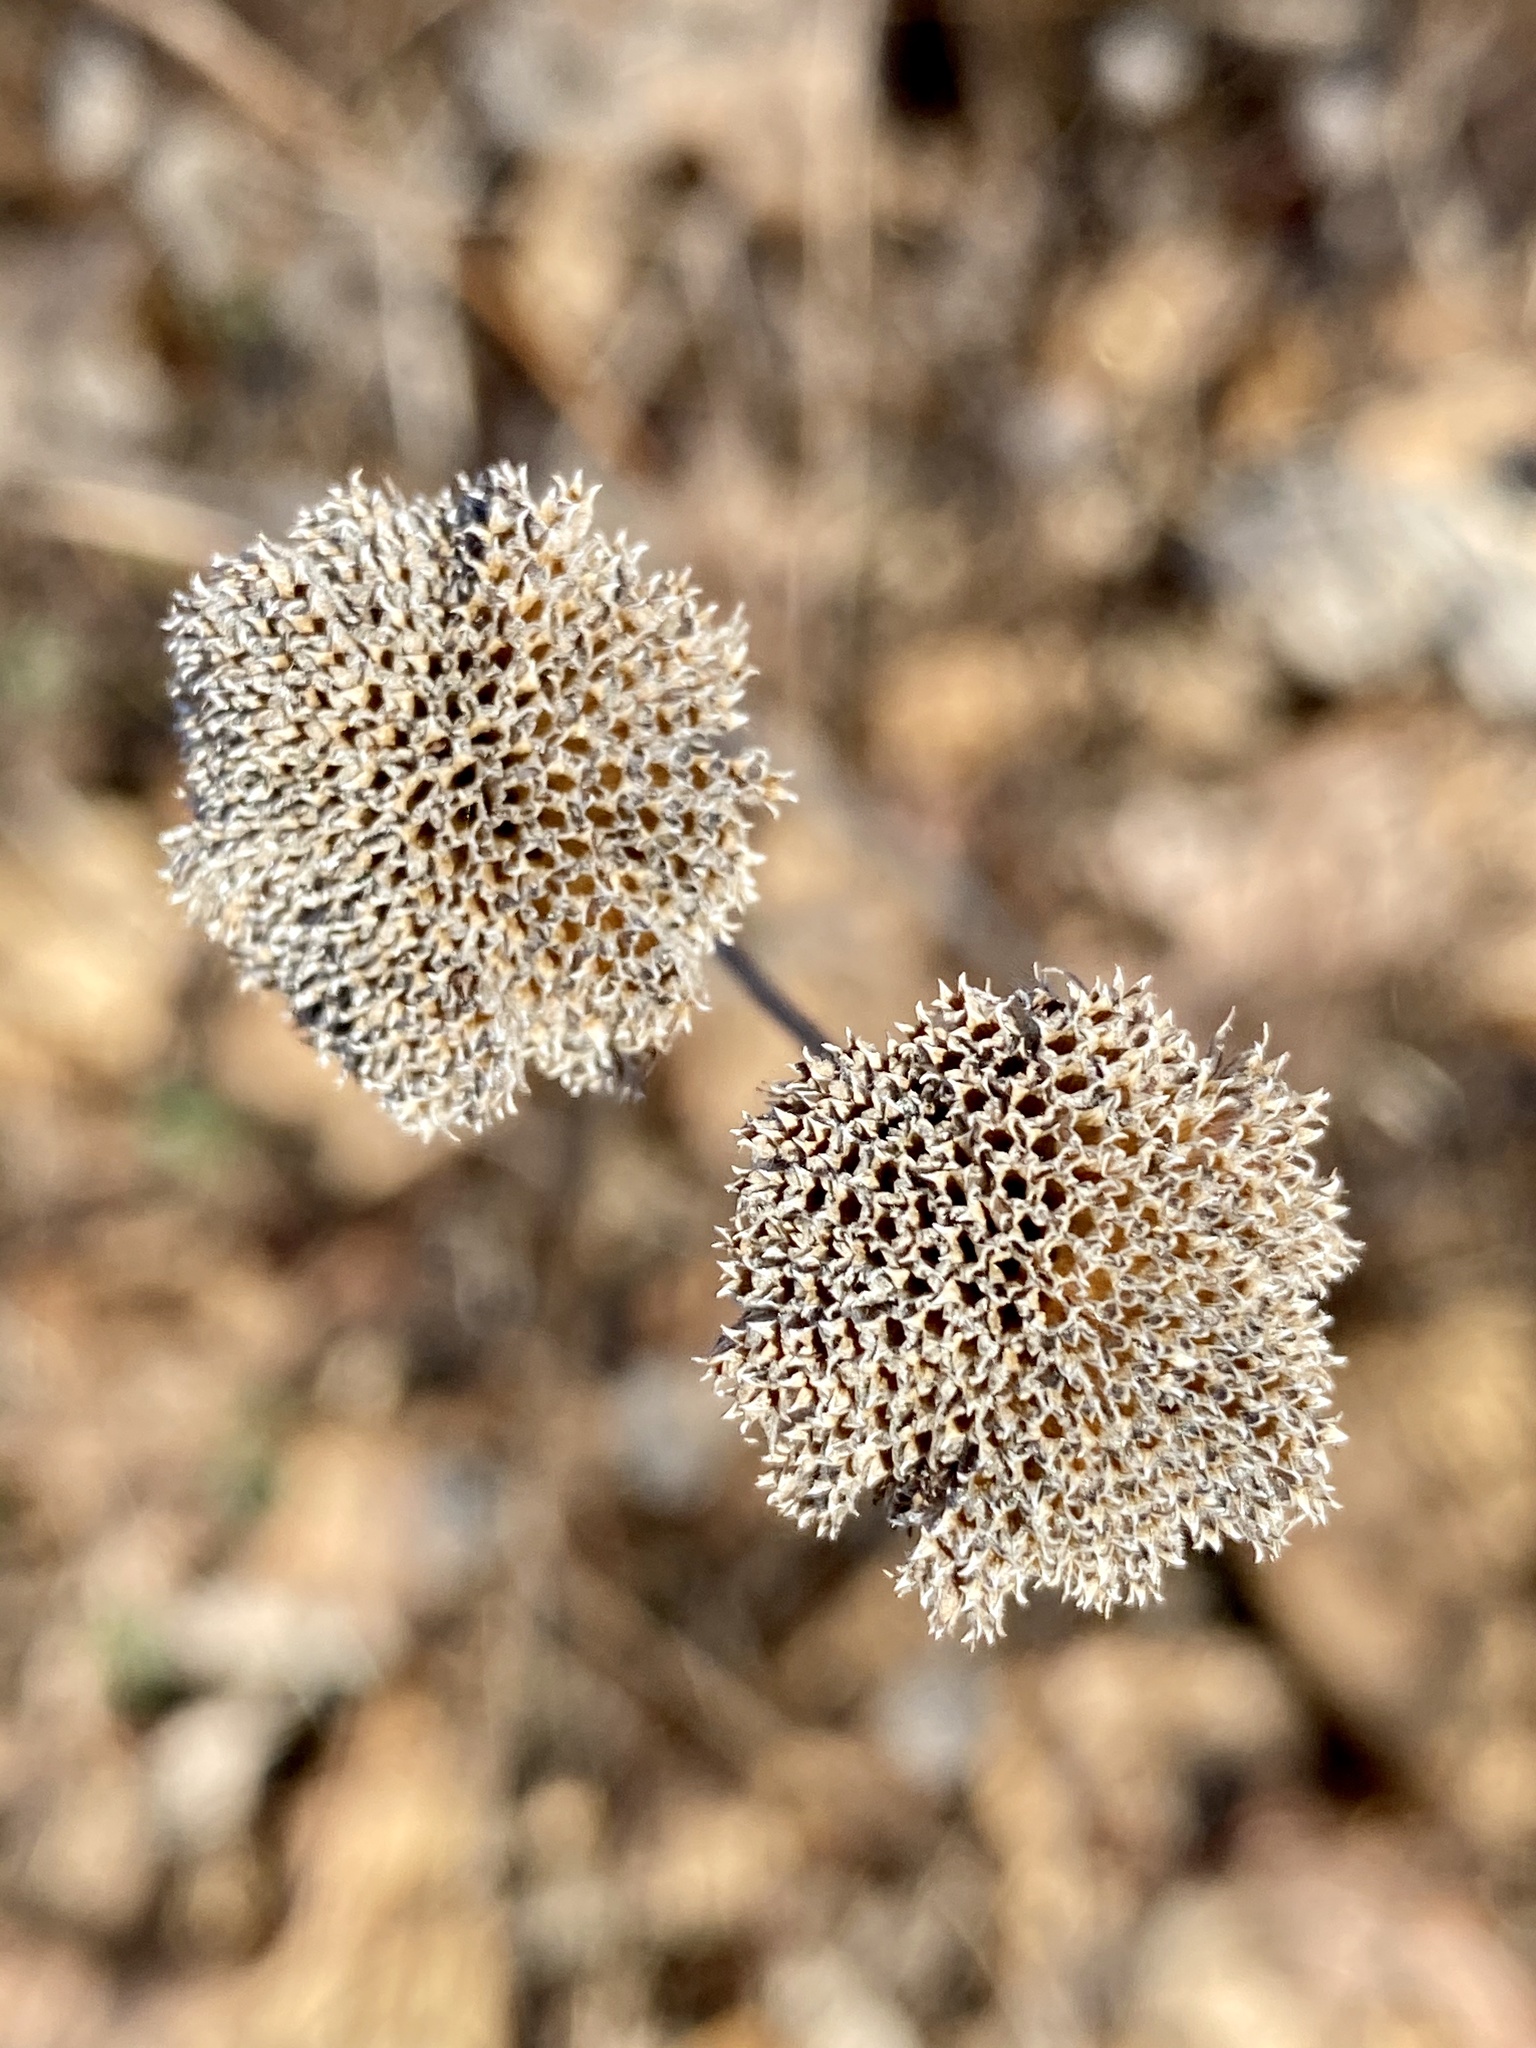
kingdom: Plantae
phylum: Tracheophyta
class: Magnoliopsida
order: Lamiales
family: Lamiaceae
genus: Pycnanthemum
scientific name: Pycnanthemum muticum
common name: Blunt mountain-mint
